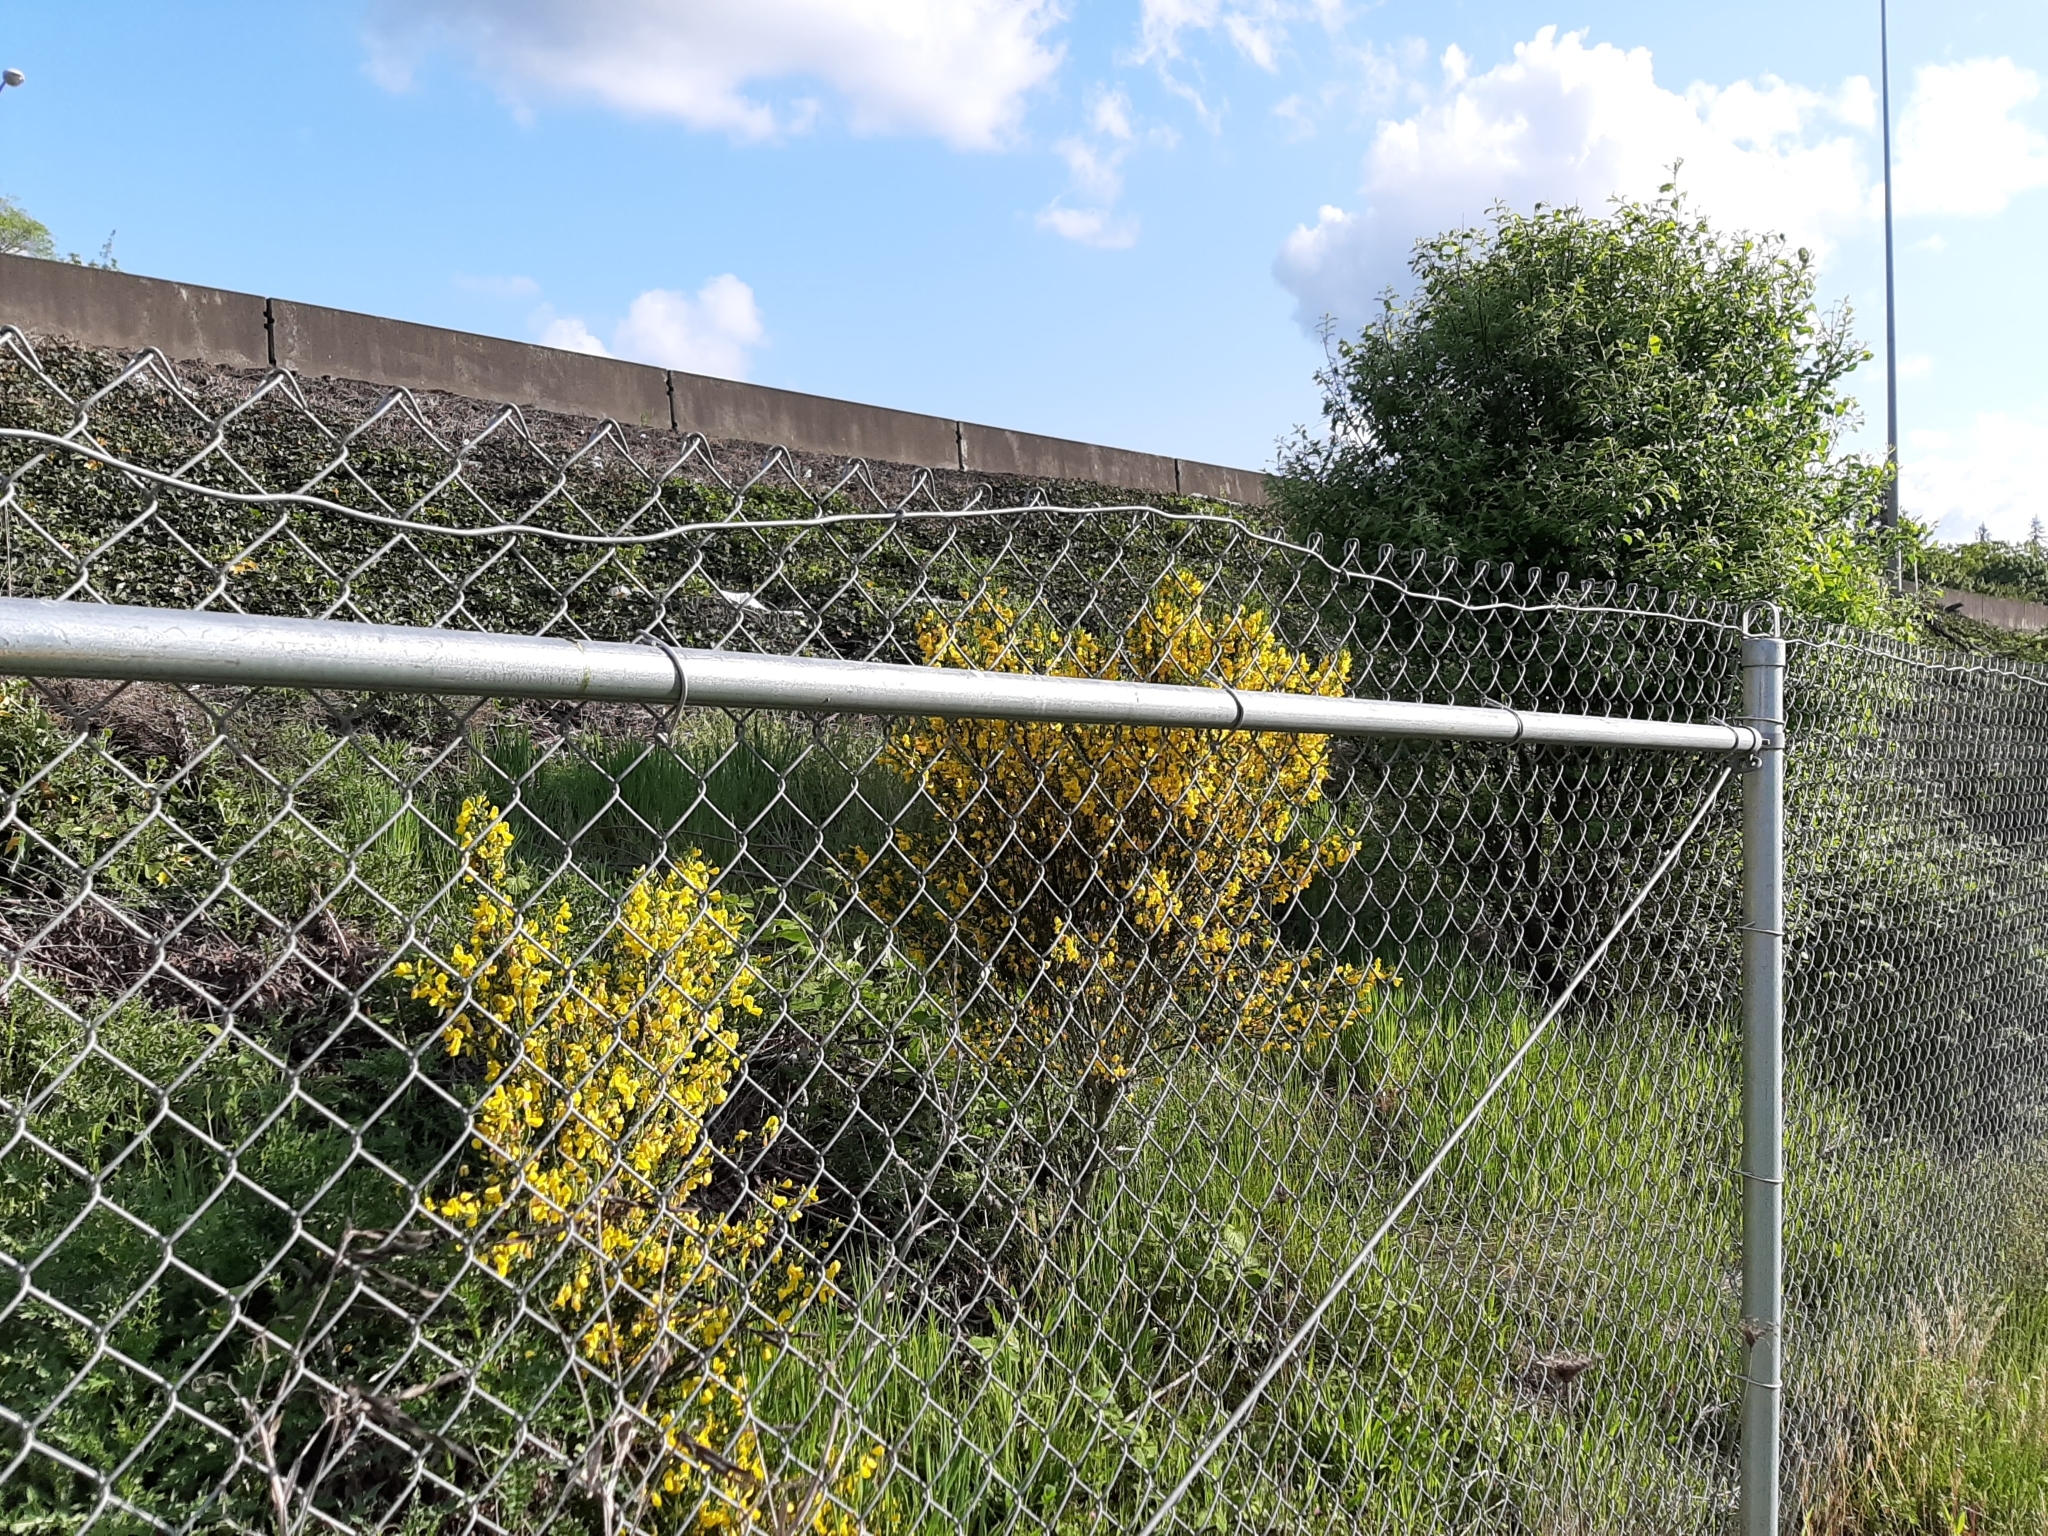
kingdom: Plantae
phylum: Tracheophyta
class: Magnoliopsida
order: Fabales
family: Fabaceae
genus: Cytisus
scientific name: Cytisus scoparius
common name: Scotch broom
